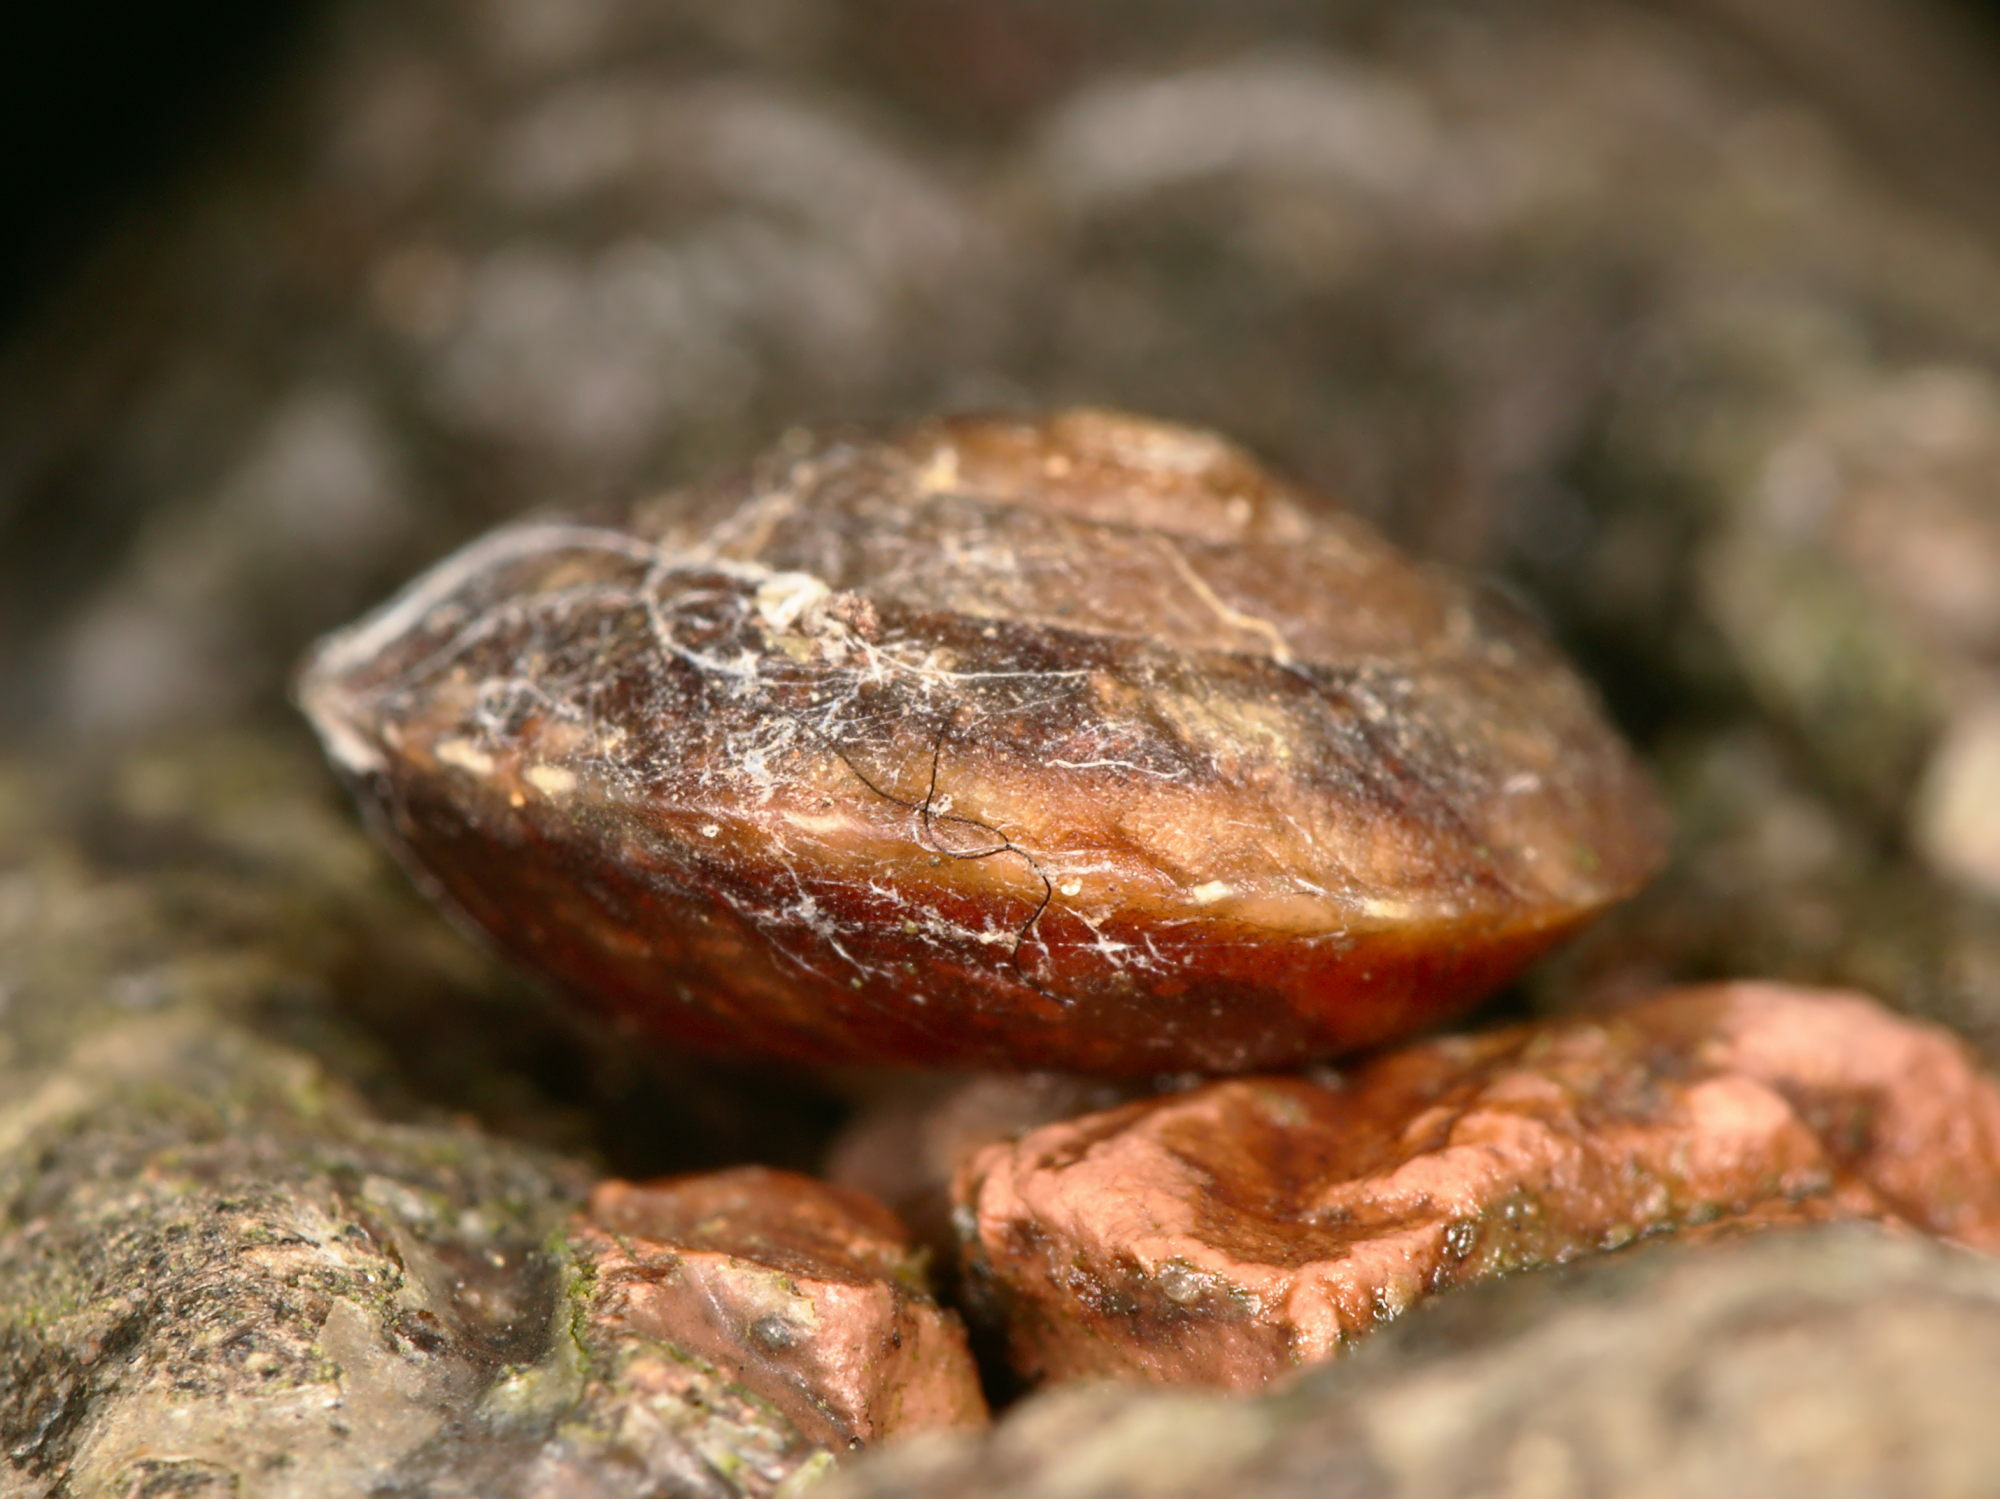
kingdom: Animalia
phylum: Mollusca
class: Gastropoda
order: Stylommatophora
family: Helicidae
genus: Helicigona
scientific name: Helicigona lapicida
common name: Lapidary snail
